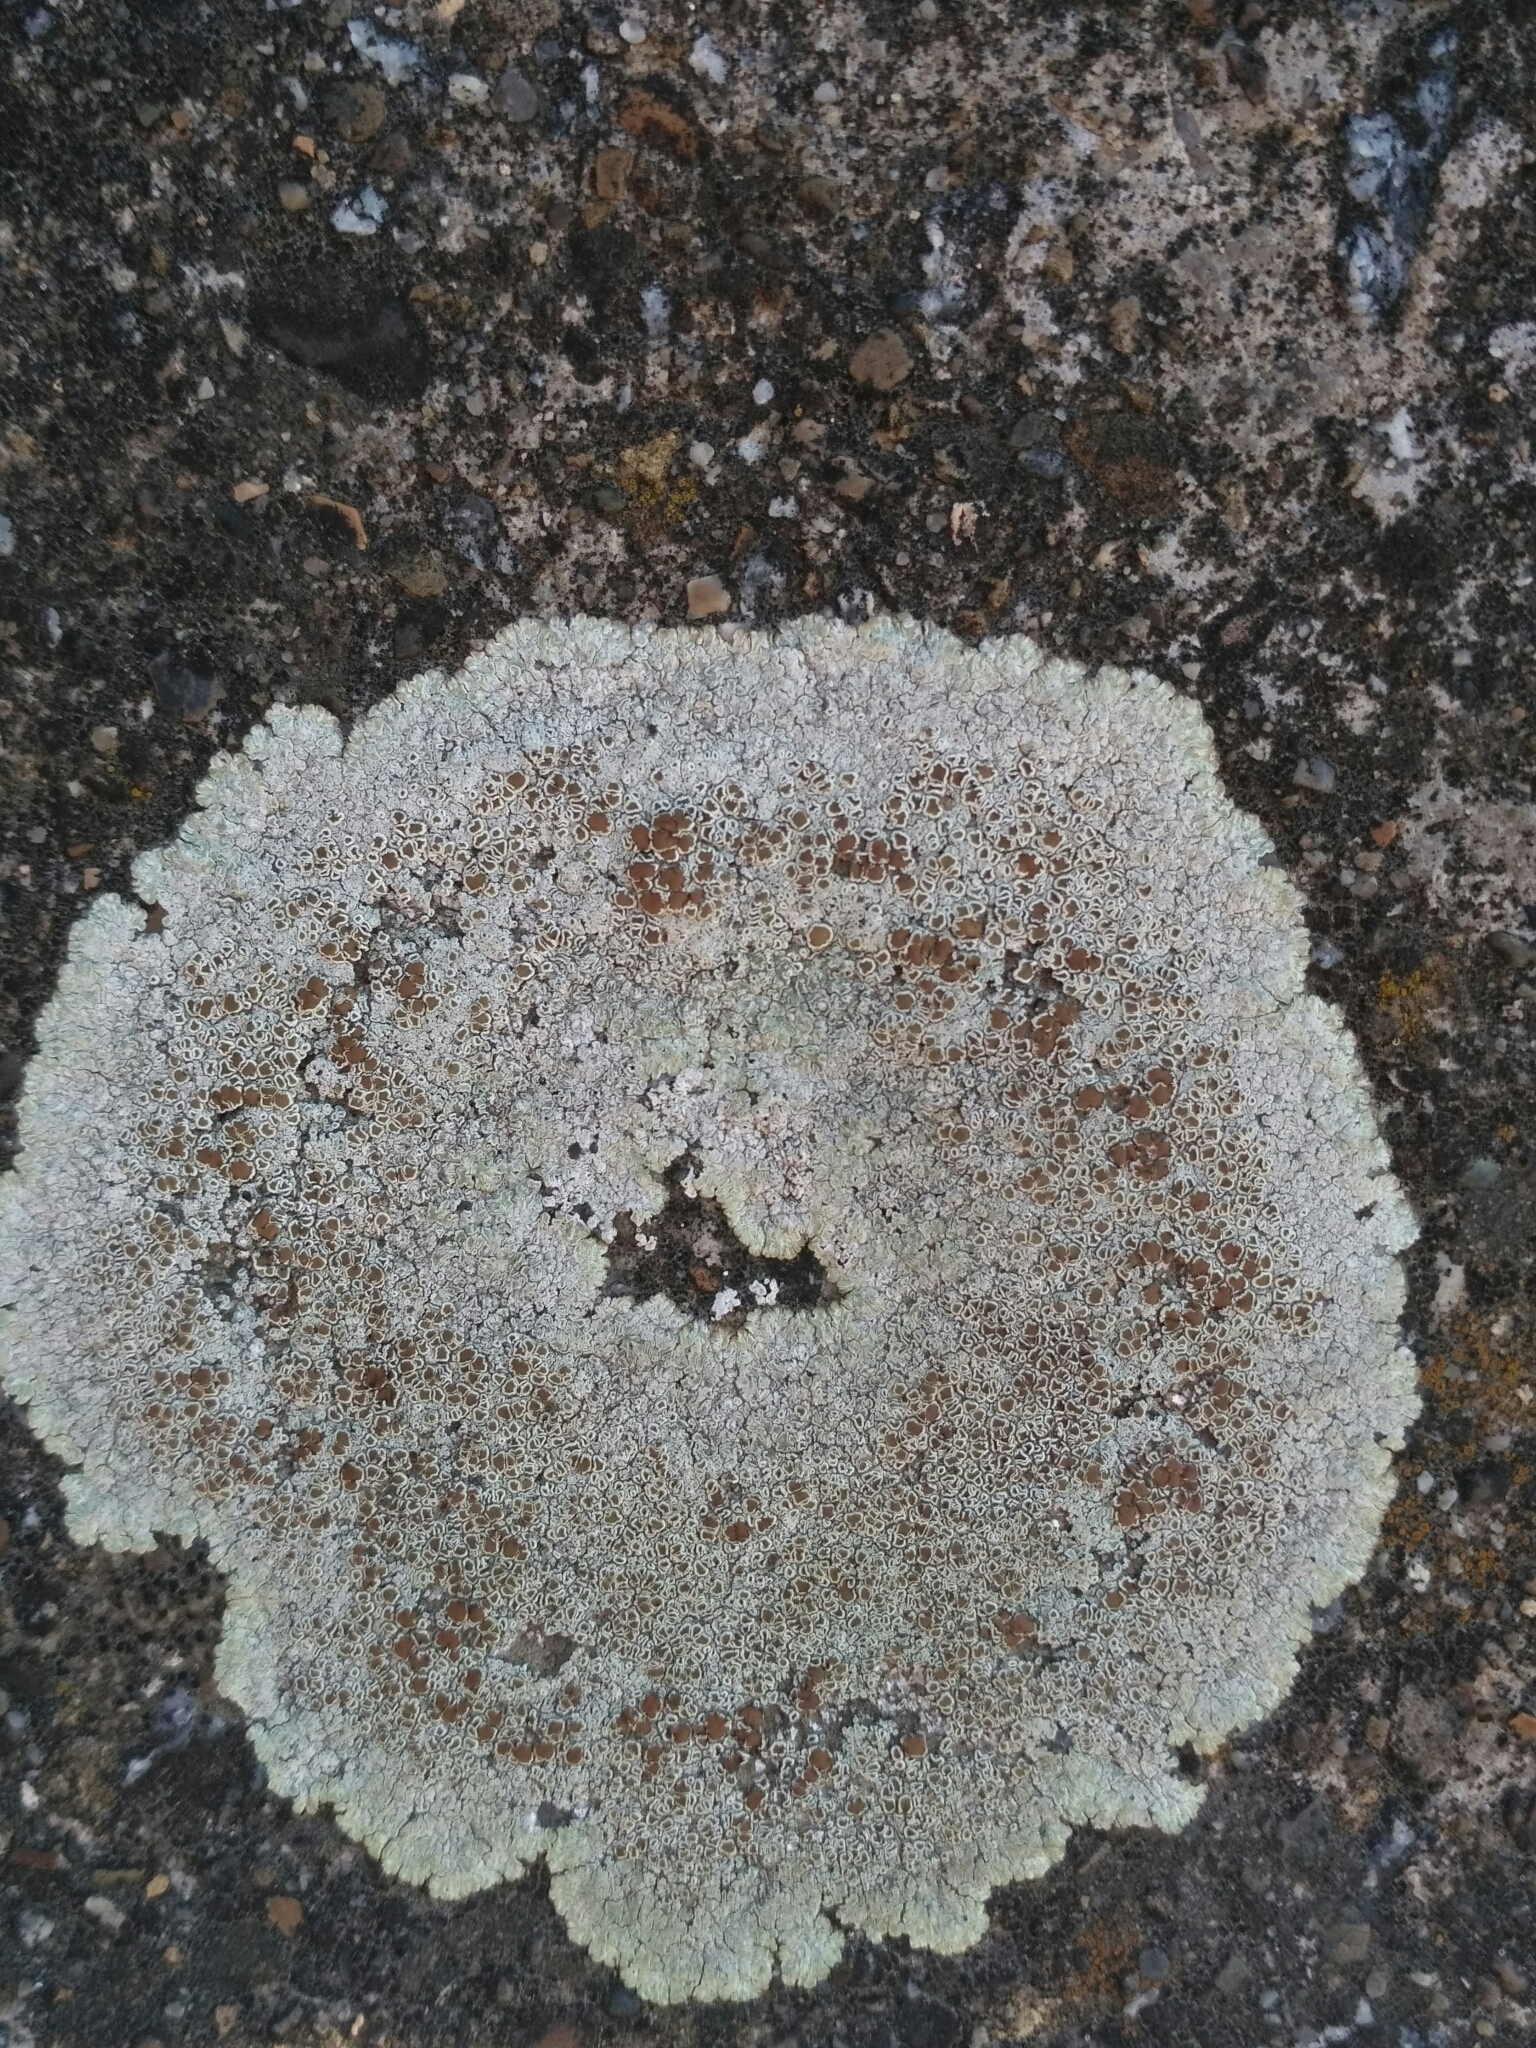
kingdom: Fungi
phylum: Ascomycota
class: Lecanoromycetes
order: Lecanorales
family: Lecanoraceae
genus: Protoparmeliopsis
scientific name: Protoparmeliopsis muralis
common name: Stonewall rim lichen
